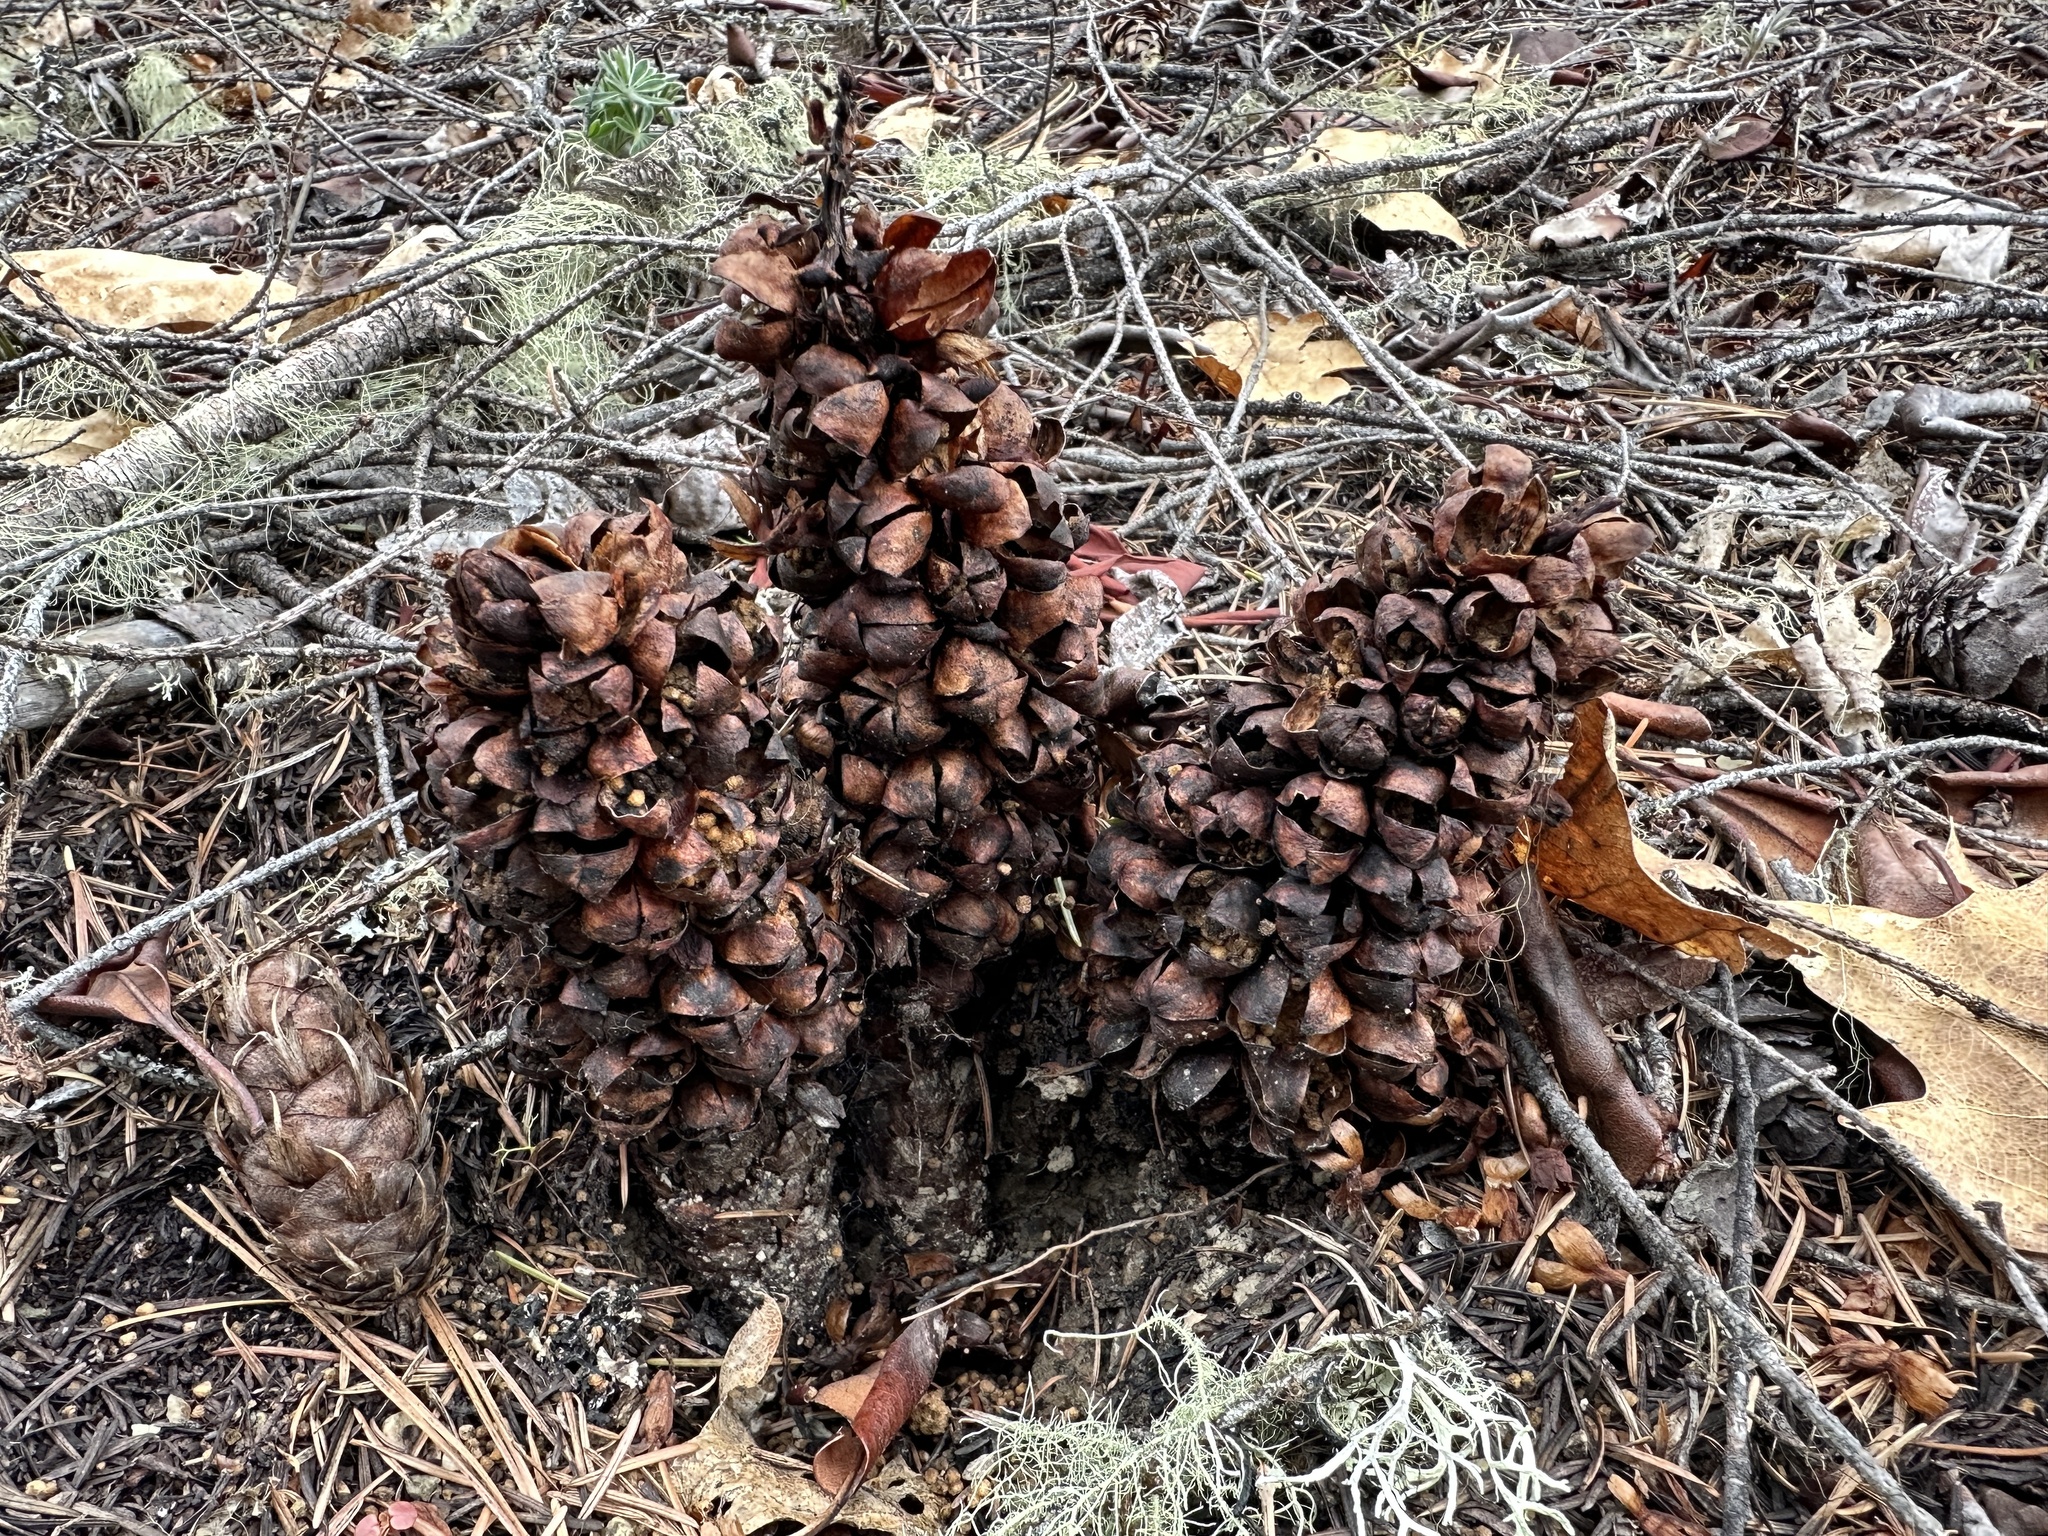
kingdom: Plantae
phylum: Tracheophyta
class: Magnoliopsida
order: Lamiales
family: Orobanchaceae
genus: Kopsiopsis
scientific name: Kopsiopsis strobilacea
